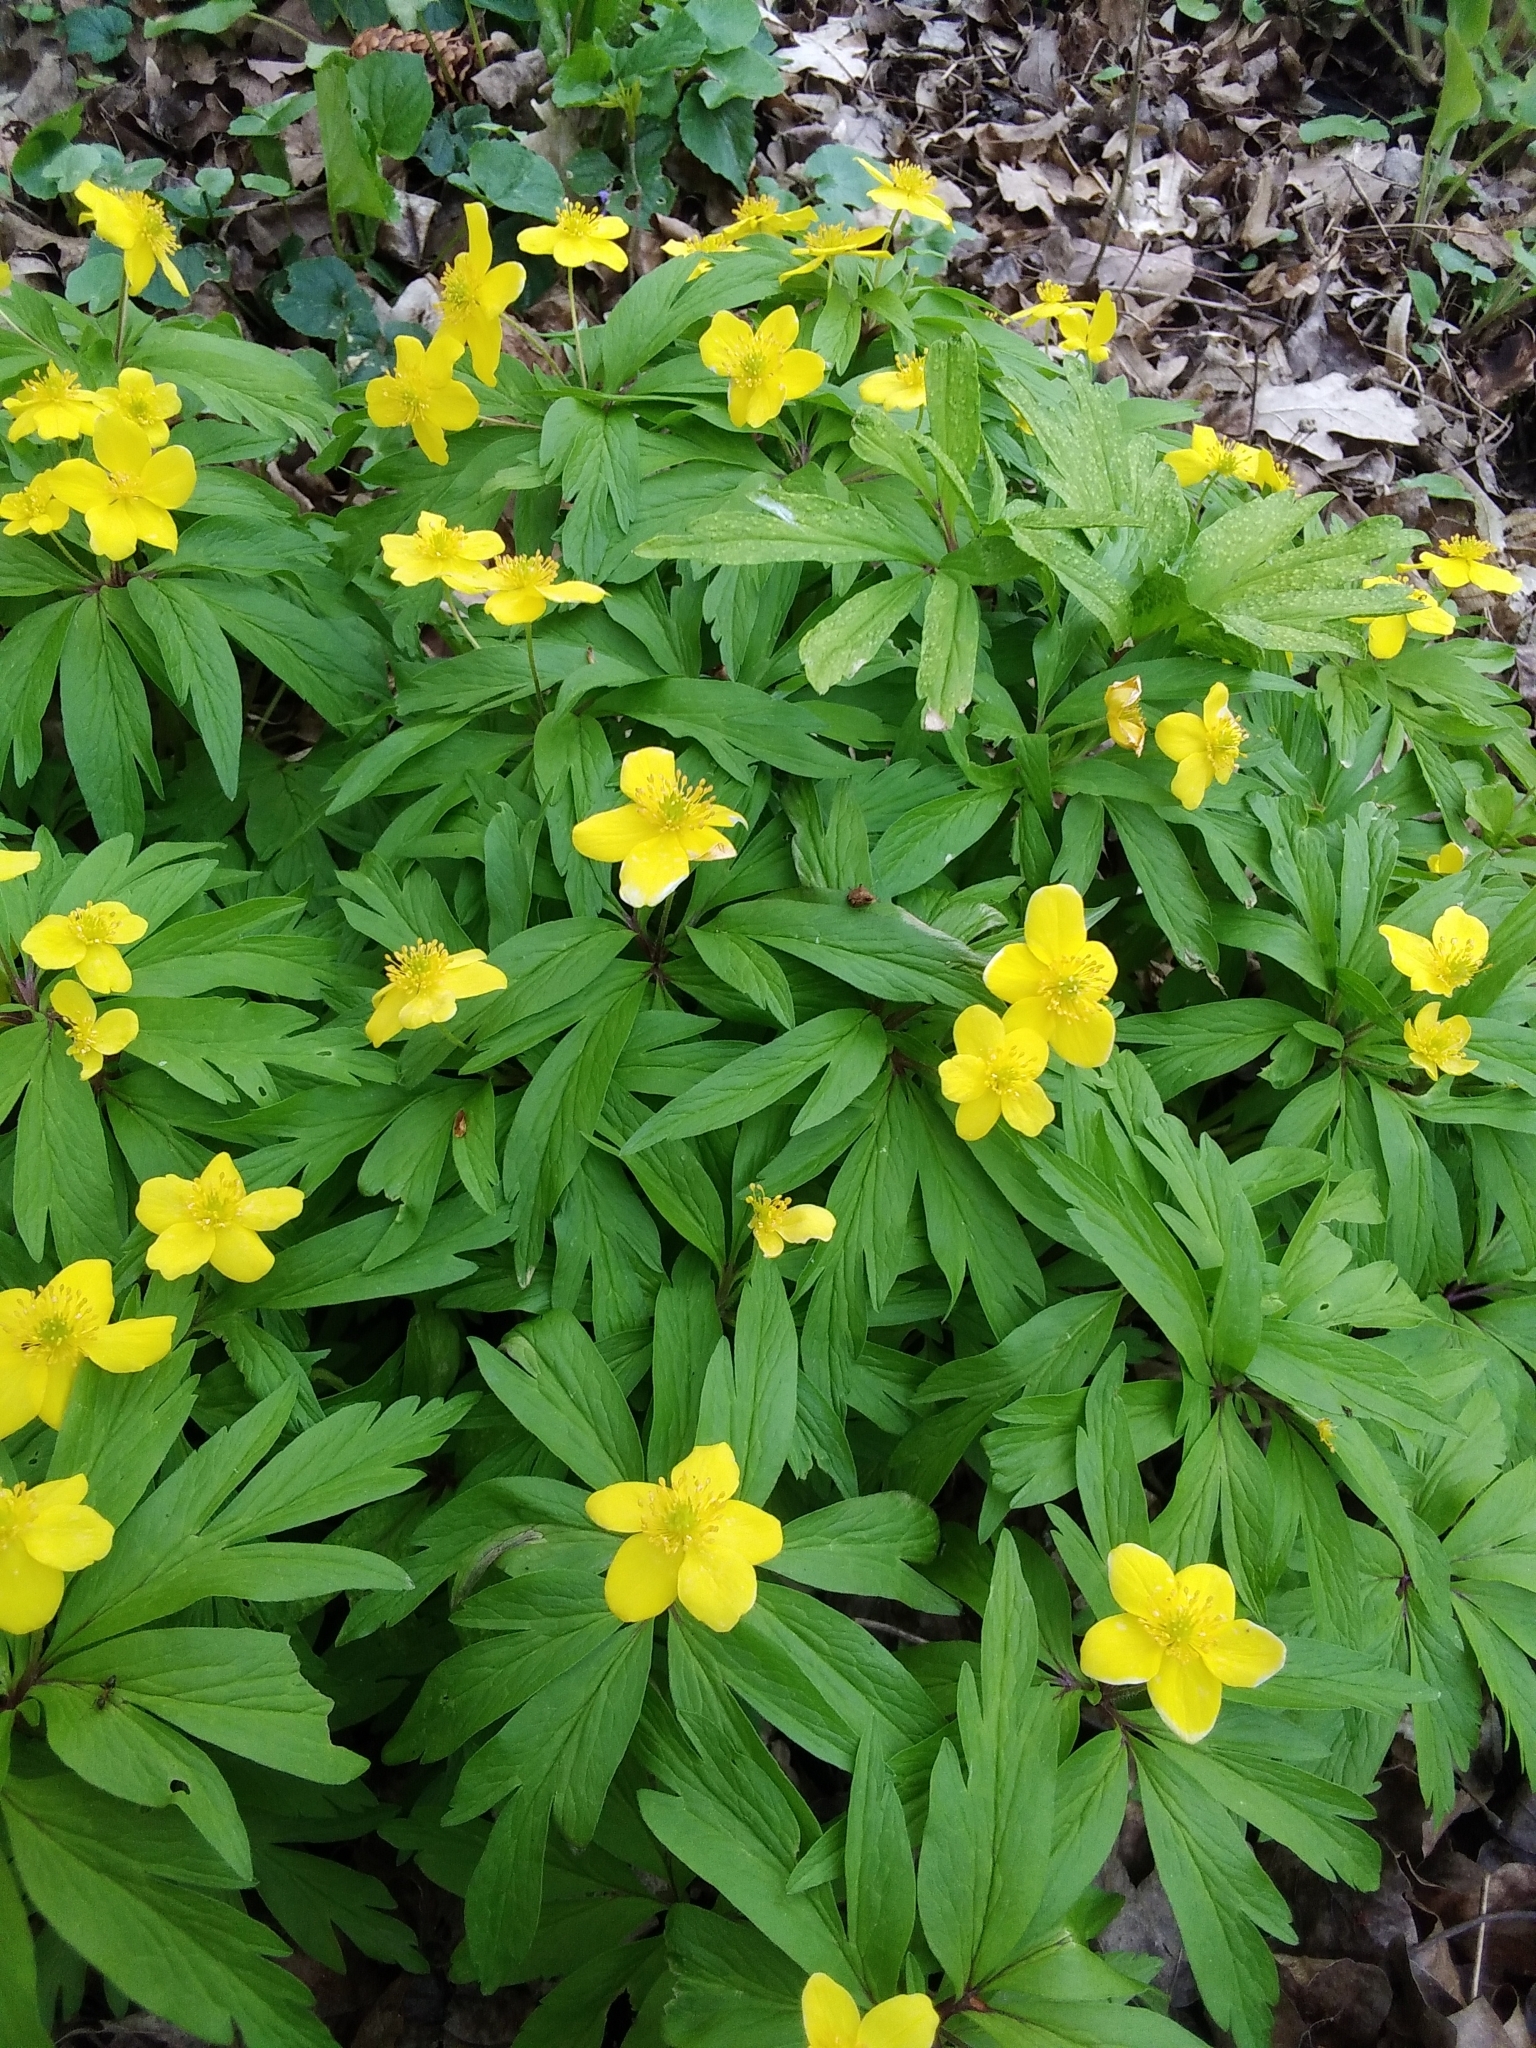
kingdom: Plantae
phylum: Tracheophyta
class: Magnoliopsida
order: Ranunculales
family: Ranunculaceae
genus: Anemone
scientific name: Anemone ranunculoides
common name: Yellow anemone
